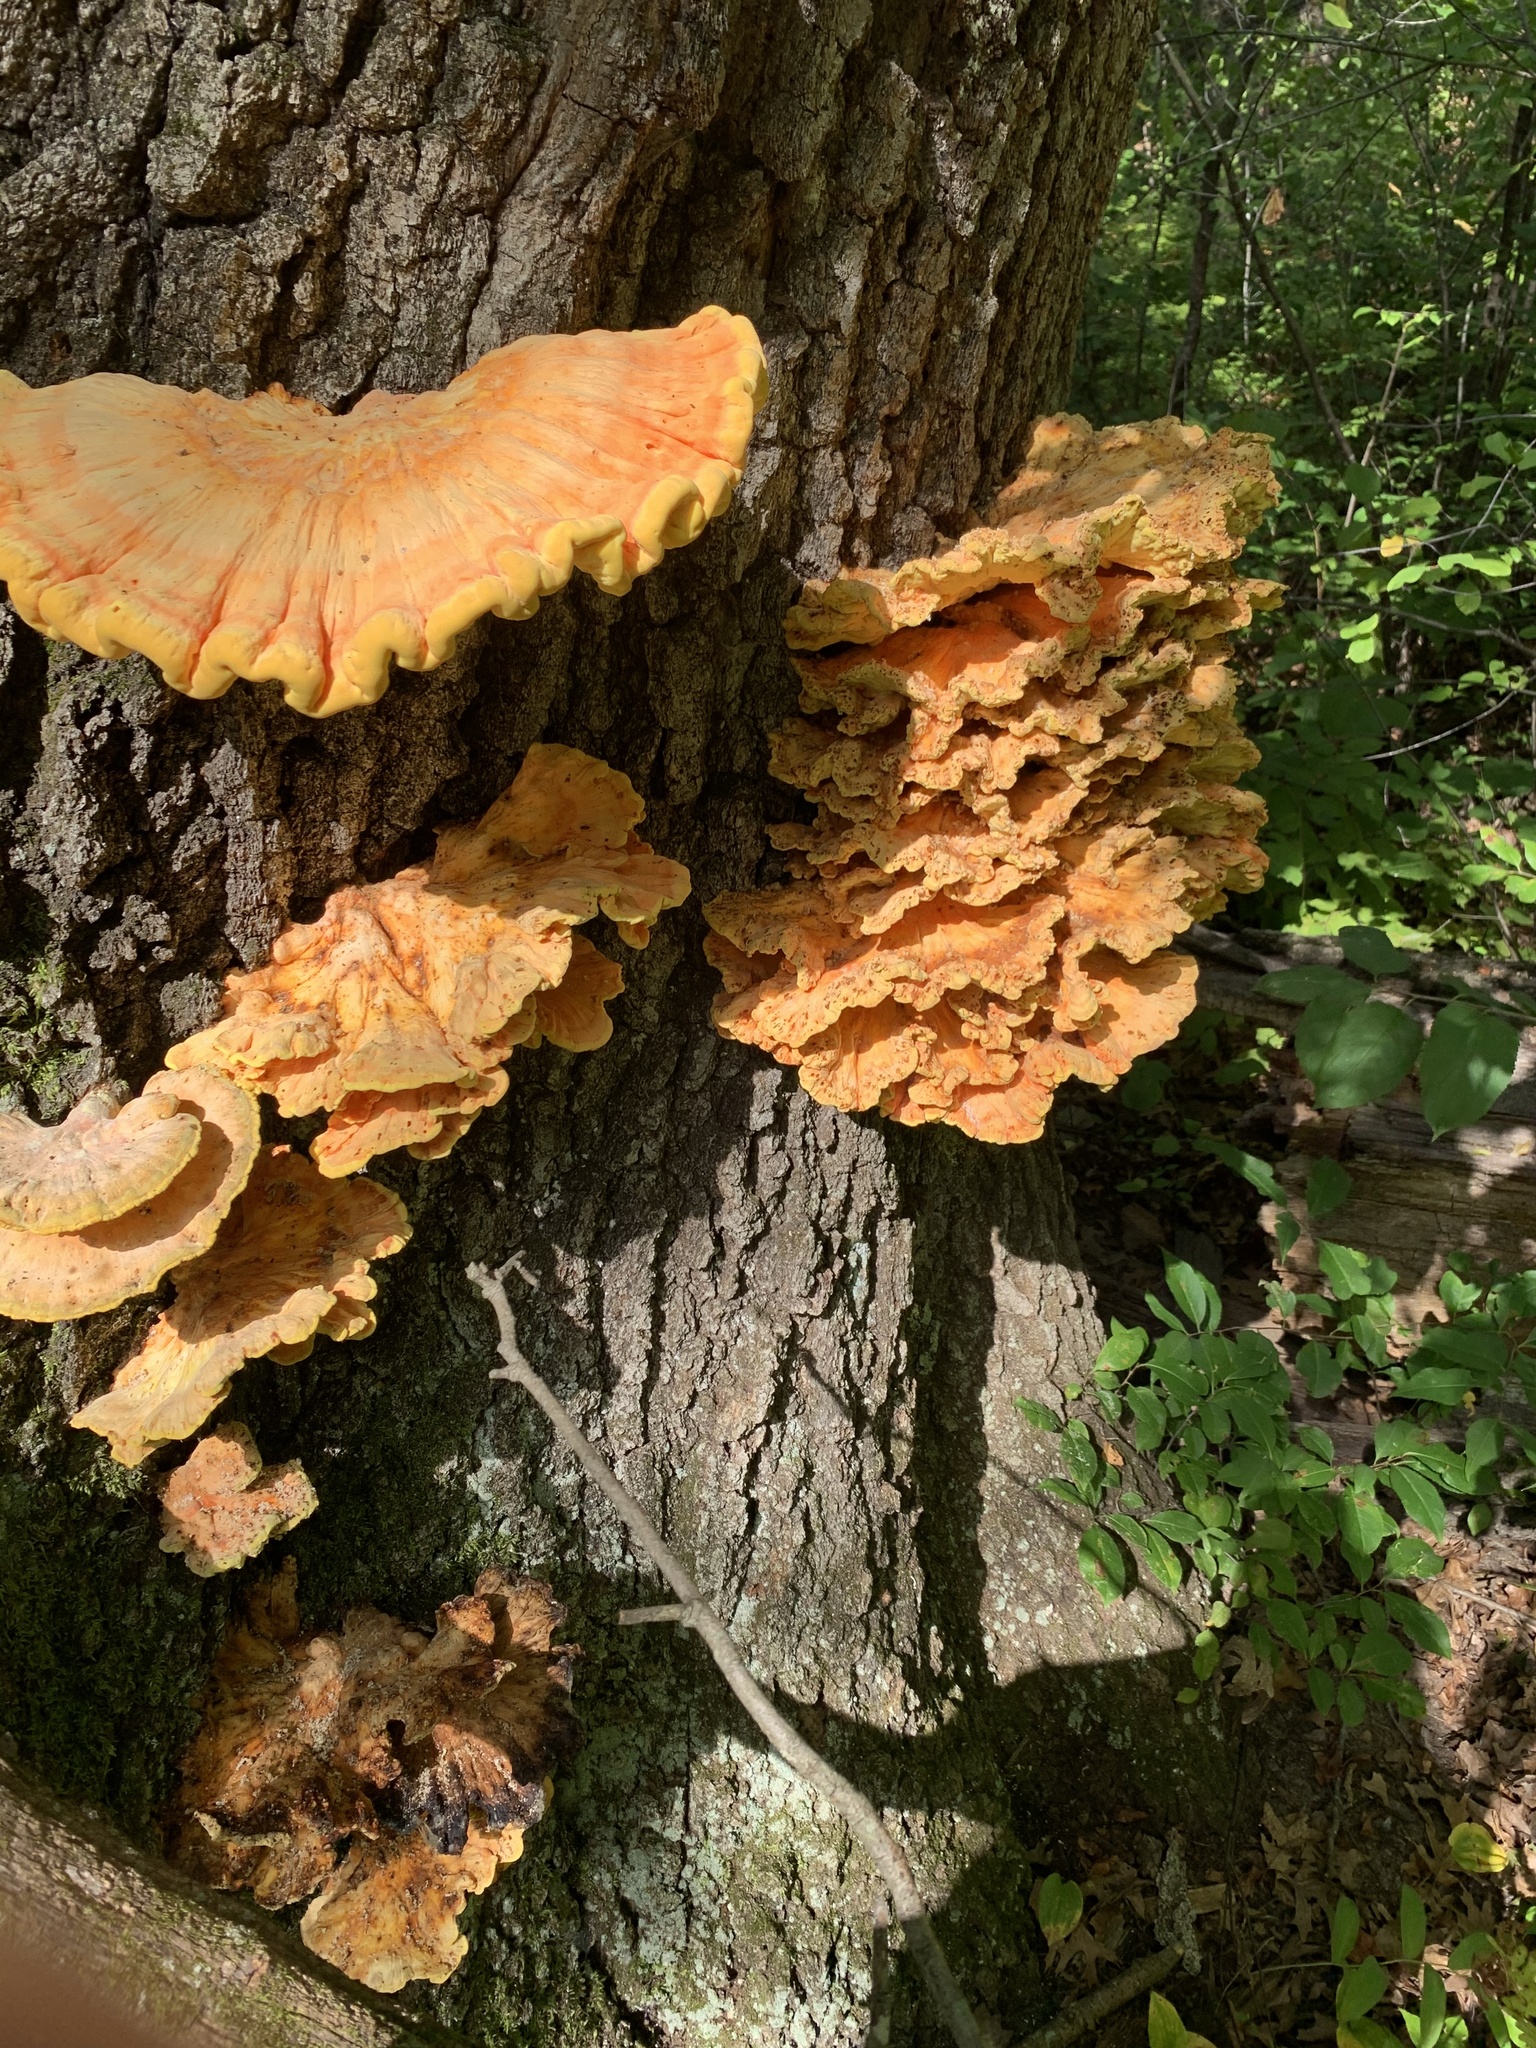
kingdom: Fungi
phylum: Basidiomycota
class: Agaricomycetes
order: Polyporales
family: Laetiporaceae
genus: Laetiporus
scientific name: Laetiporus sulphureus
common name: Chicken of the woods
